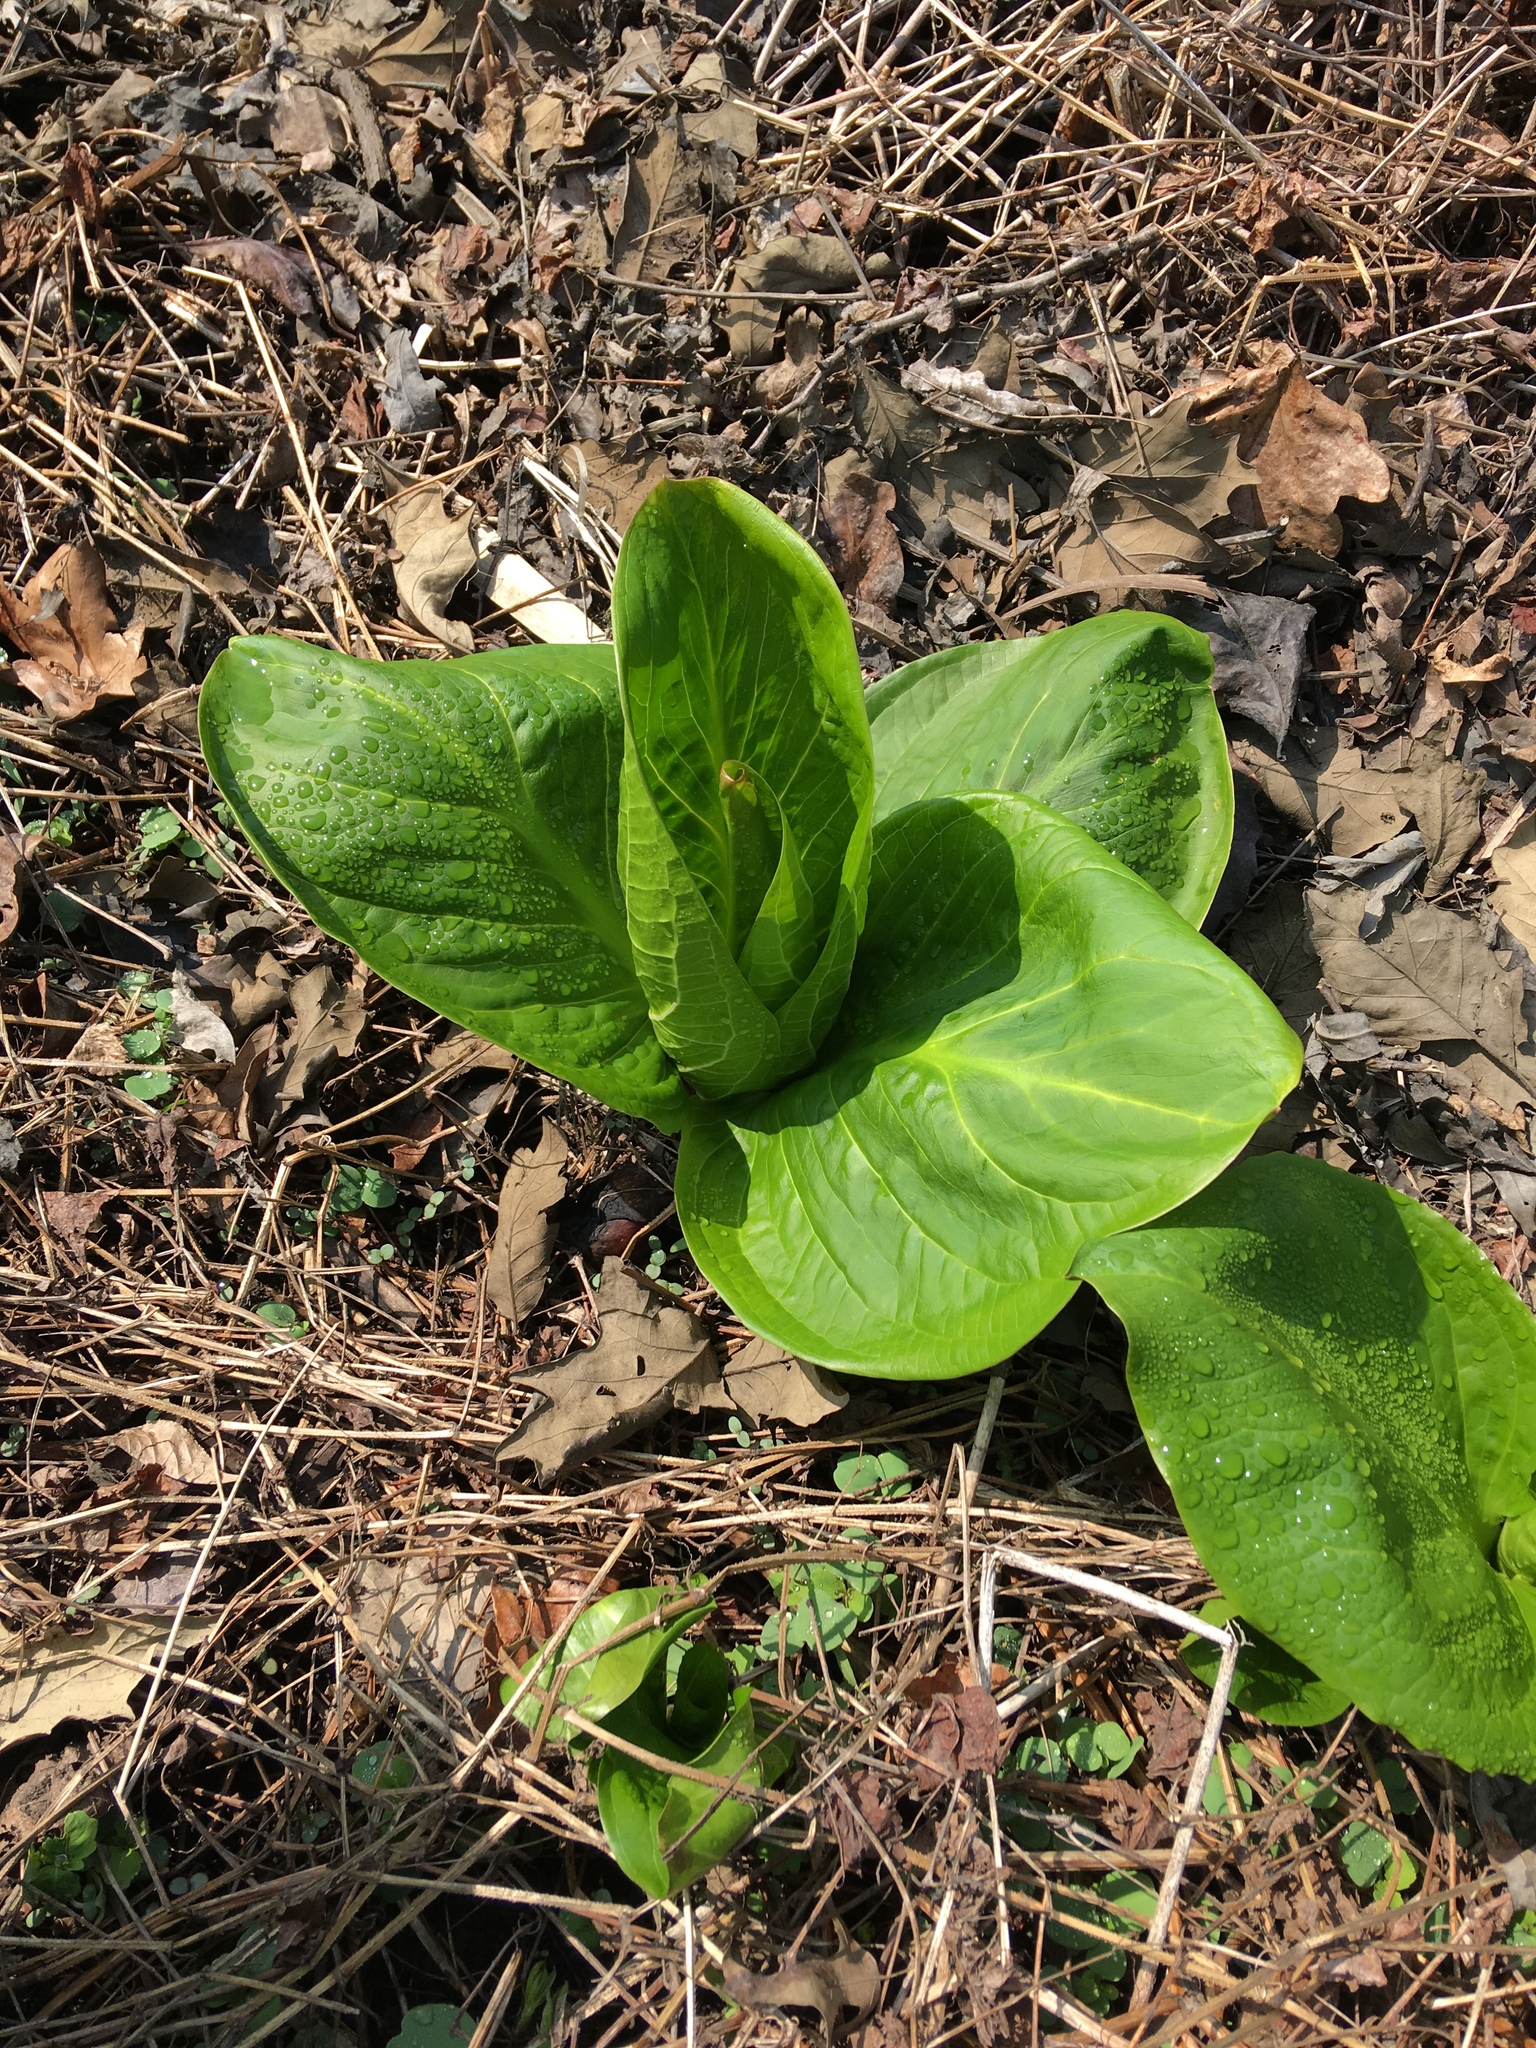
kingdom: Plantae
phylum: Tracheophyta
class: Liliopsida
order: Alismatales
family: Araceae
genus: Symplocarpus
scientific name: Symplocarpus foetidus
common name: Eastern skunk cabbage
